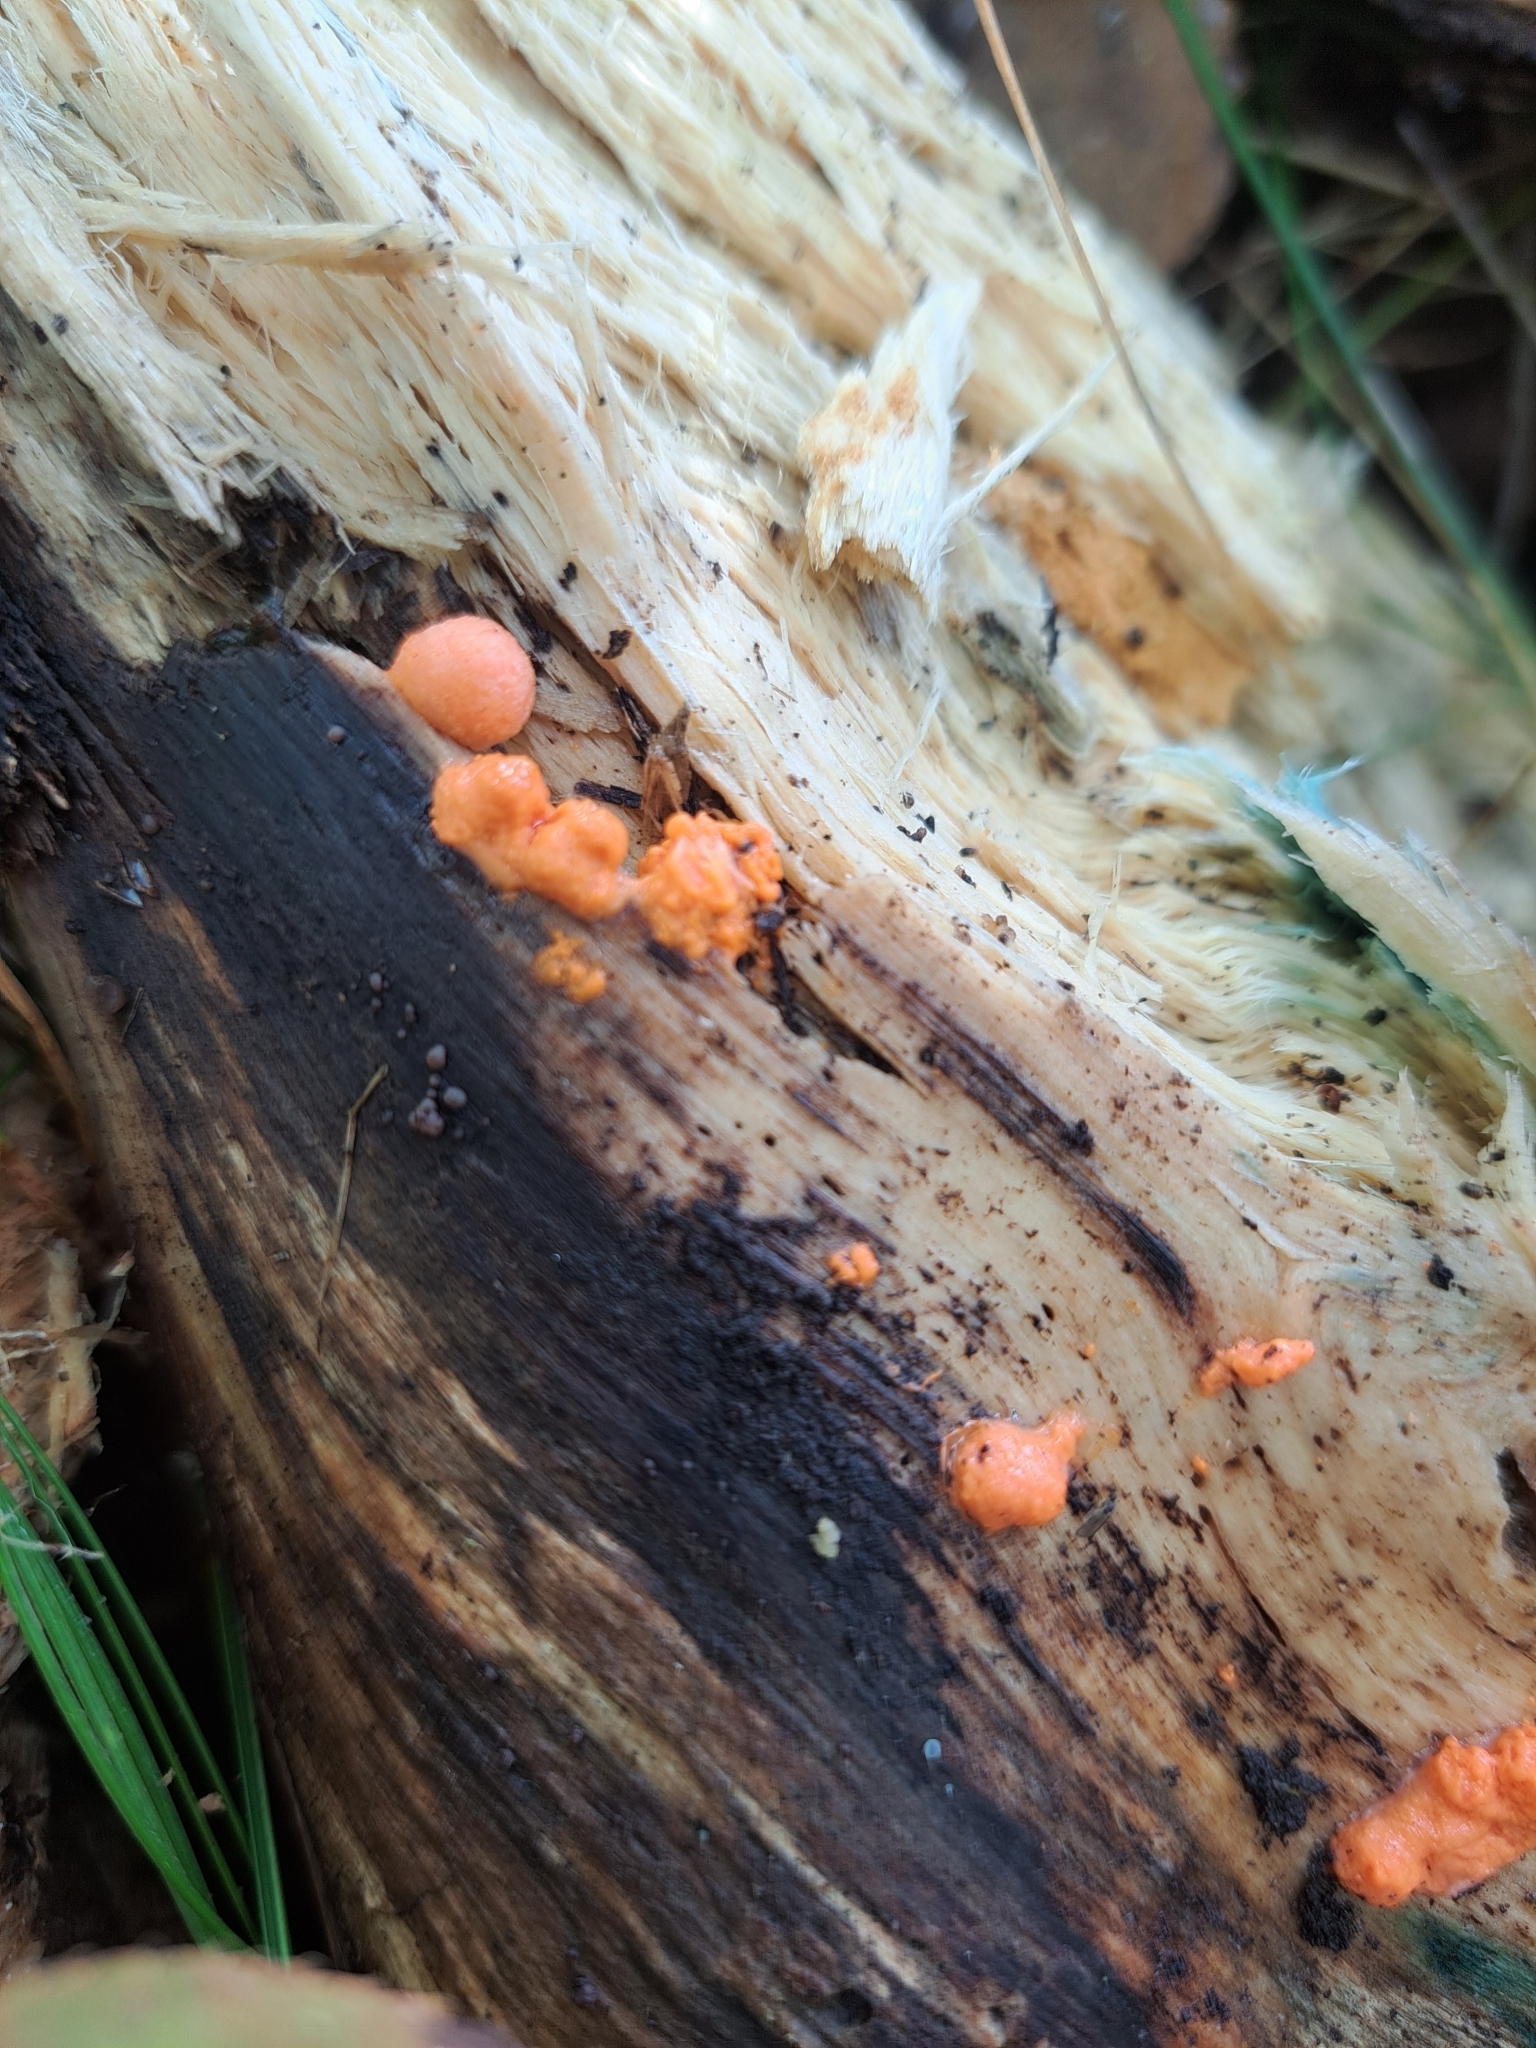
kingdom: Protozoa
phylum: Mycetozoa
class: Myxomycetes
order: Cribrariales
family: Tubiferaceae
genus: Lycogala
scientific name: Lycogala epidendrum
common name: Wolf's milk
